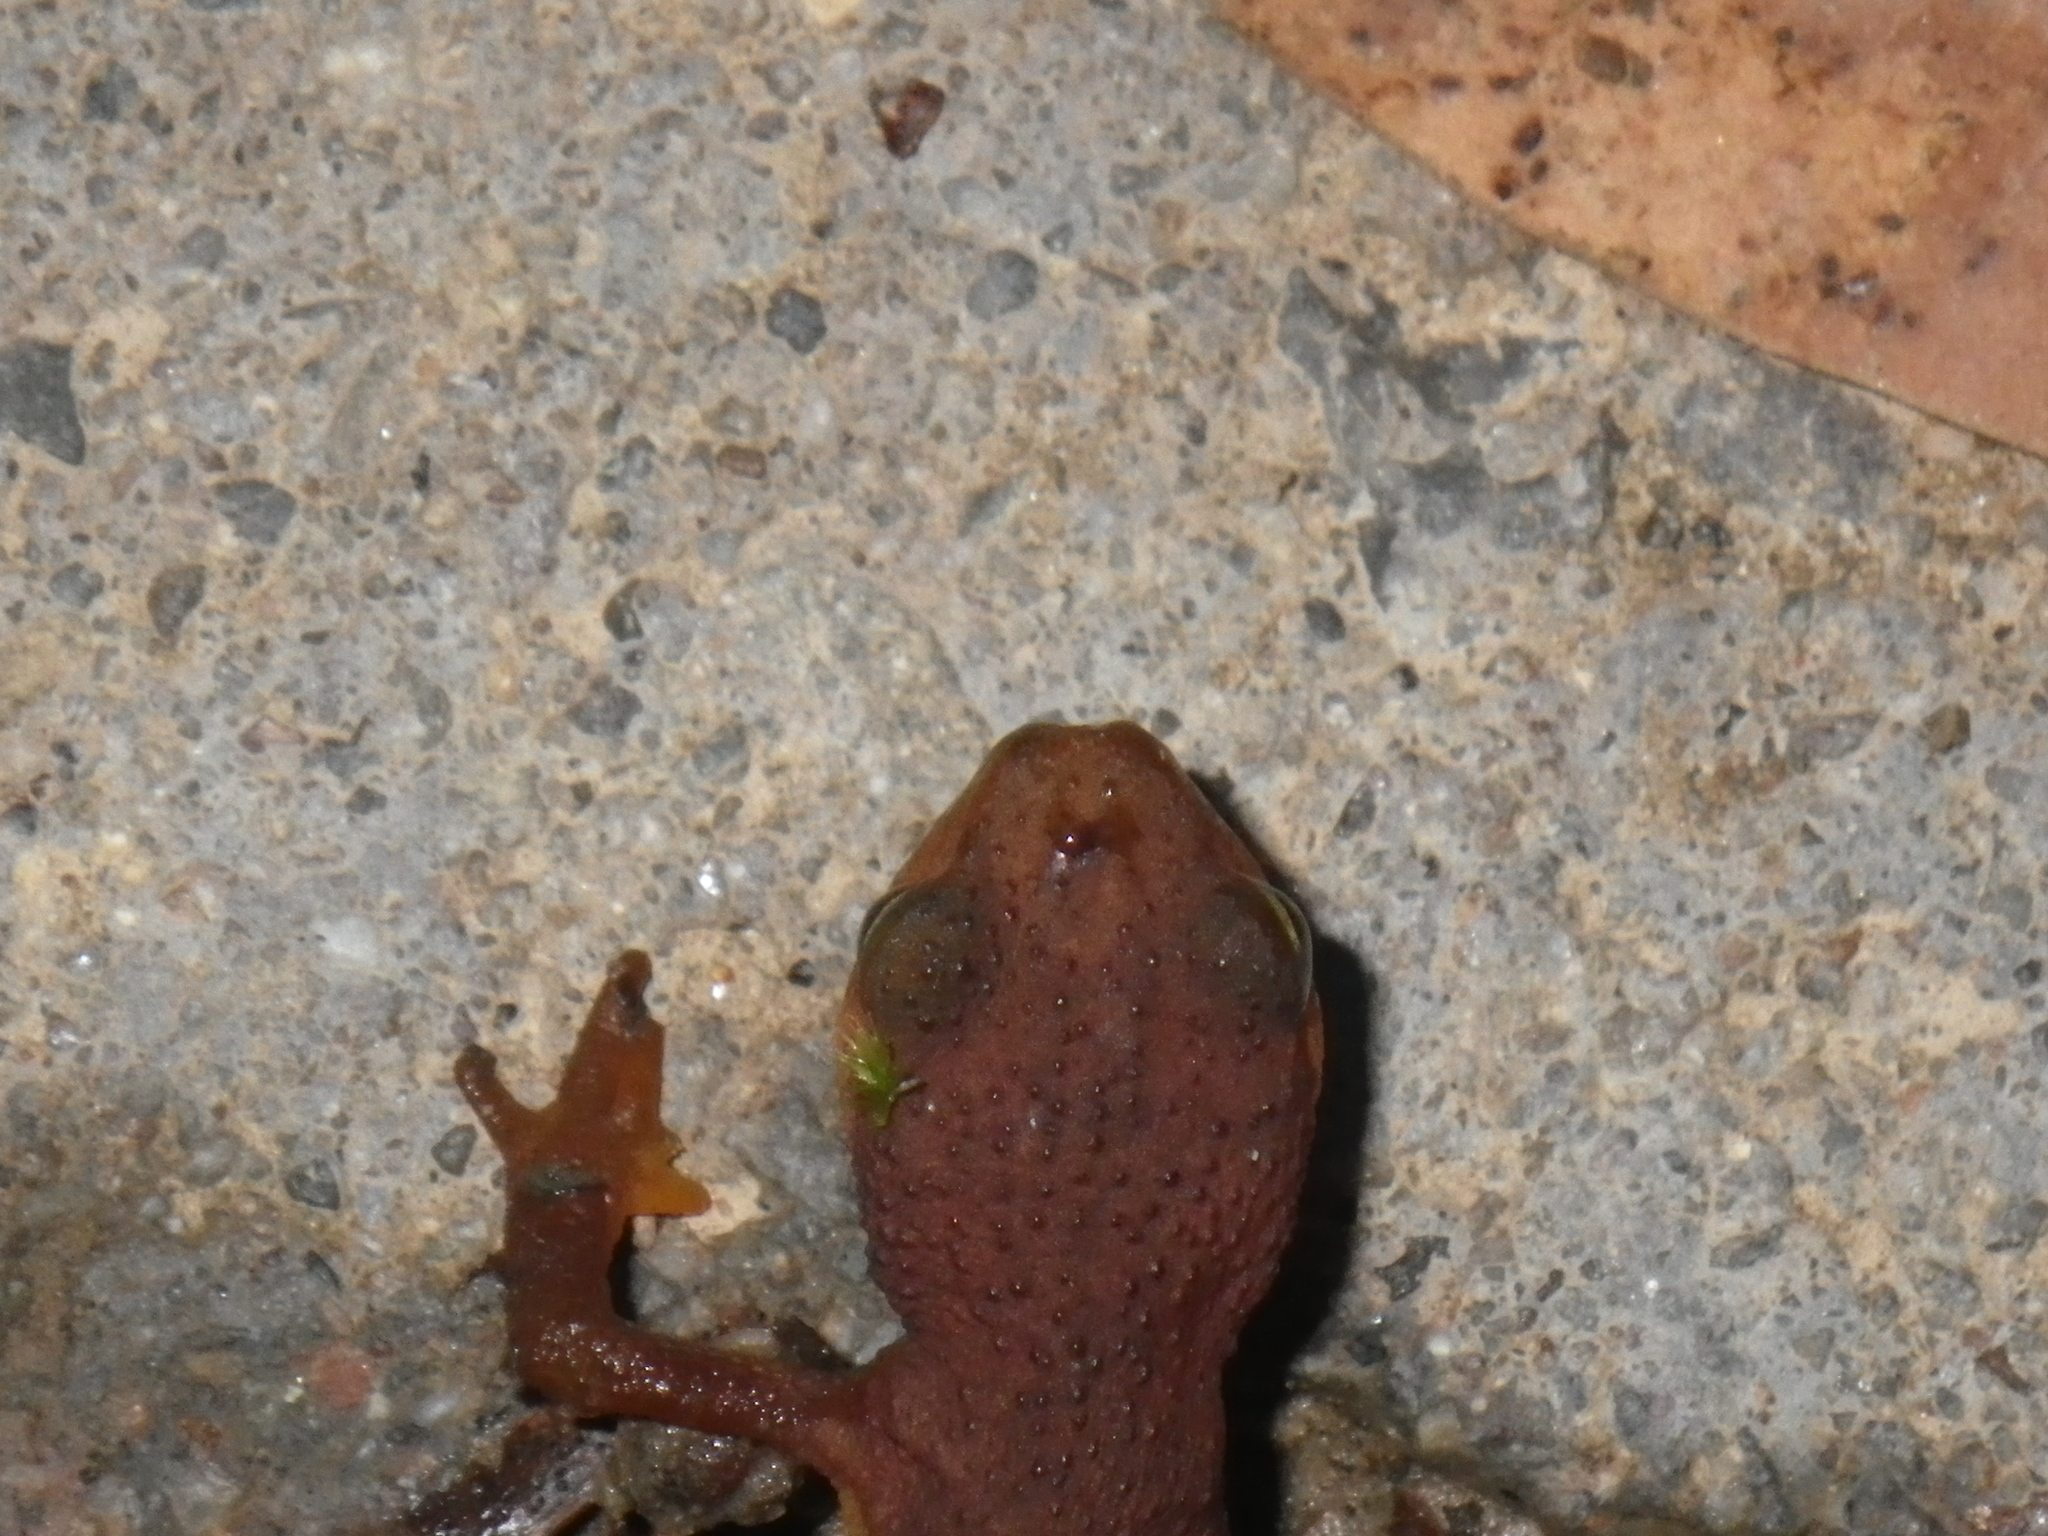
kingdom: Animalia
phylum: Chordata
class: Amphibia
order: Caudata
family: Salamandridae
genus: Taricha
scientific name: Taricha torosa
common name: California newt
